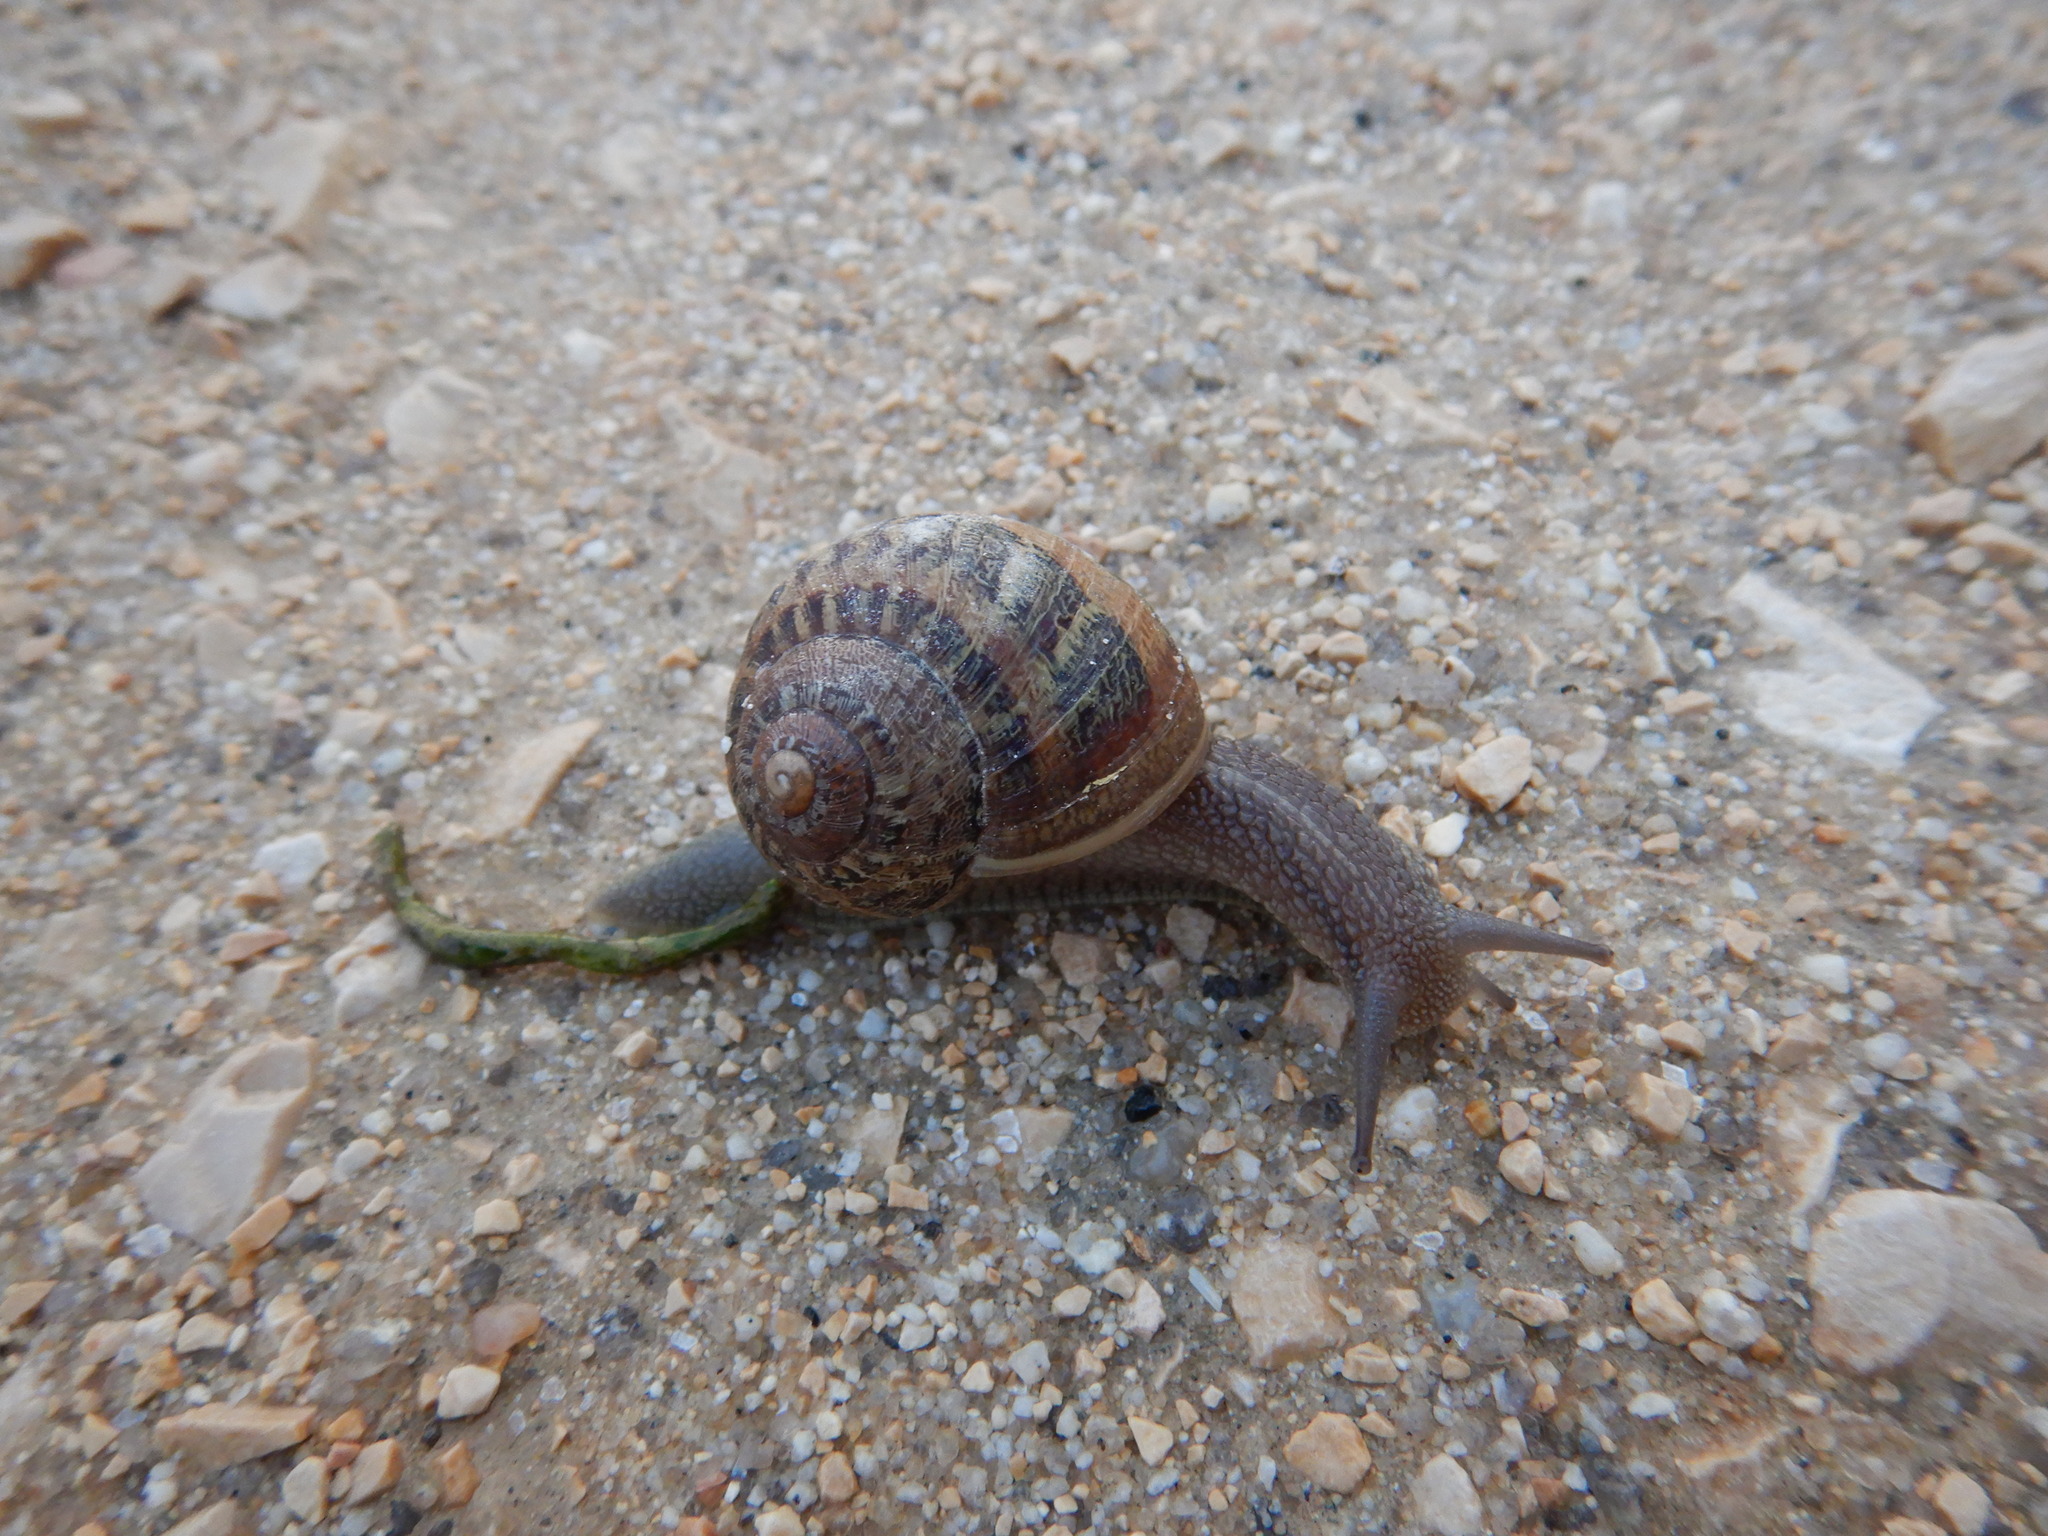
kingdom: Animalia
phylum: Mollusca
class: Gastropoda
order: Stylommatophora
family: Helicidae
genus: Cornu
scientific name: Cornu aspersum
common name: Brown garden snail
